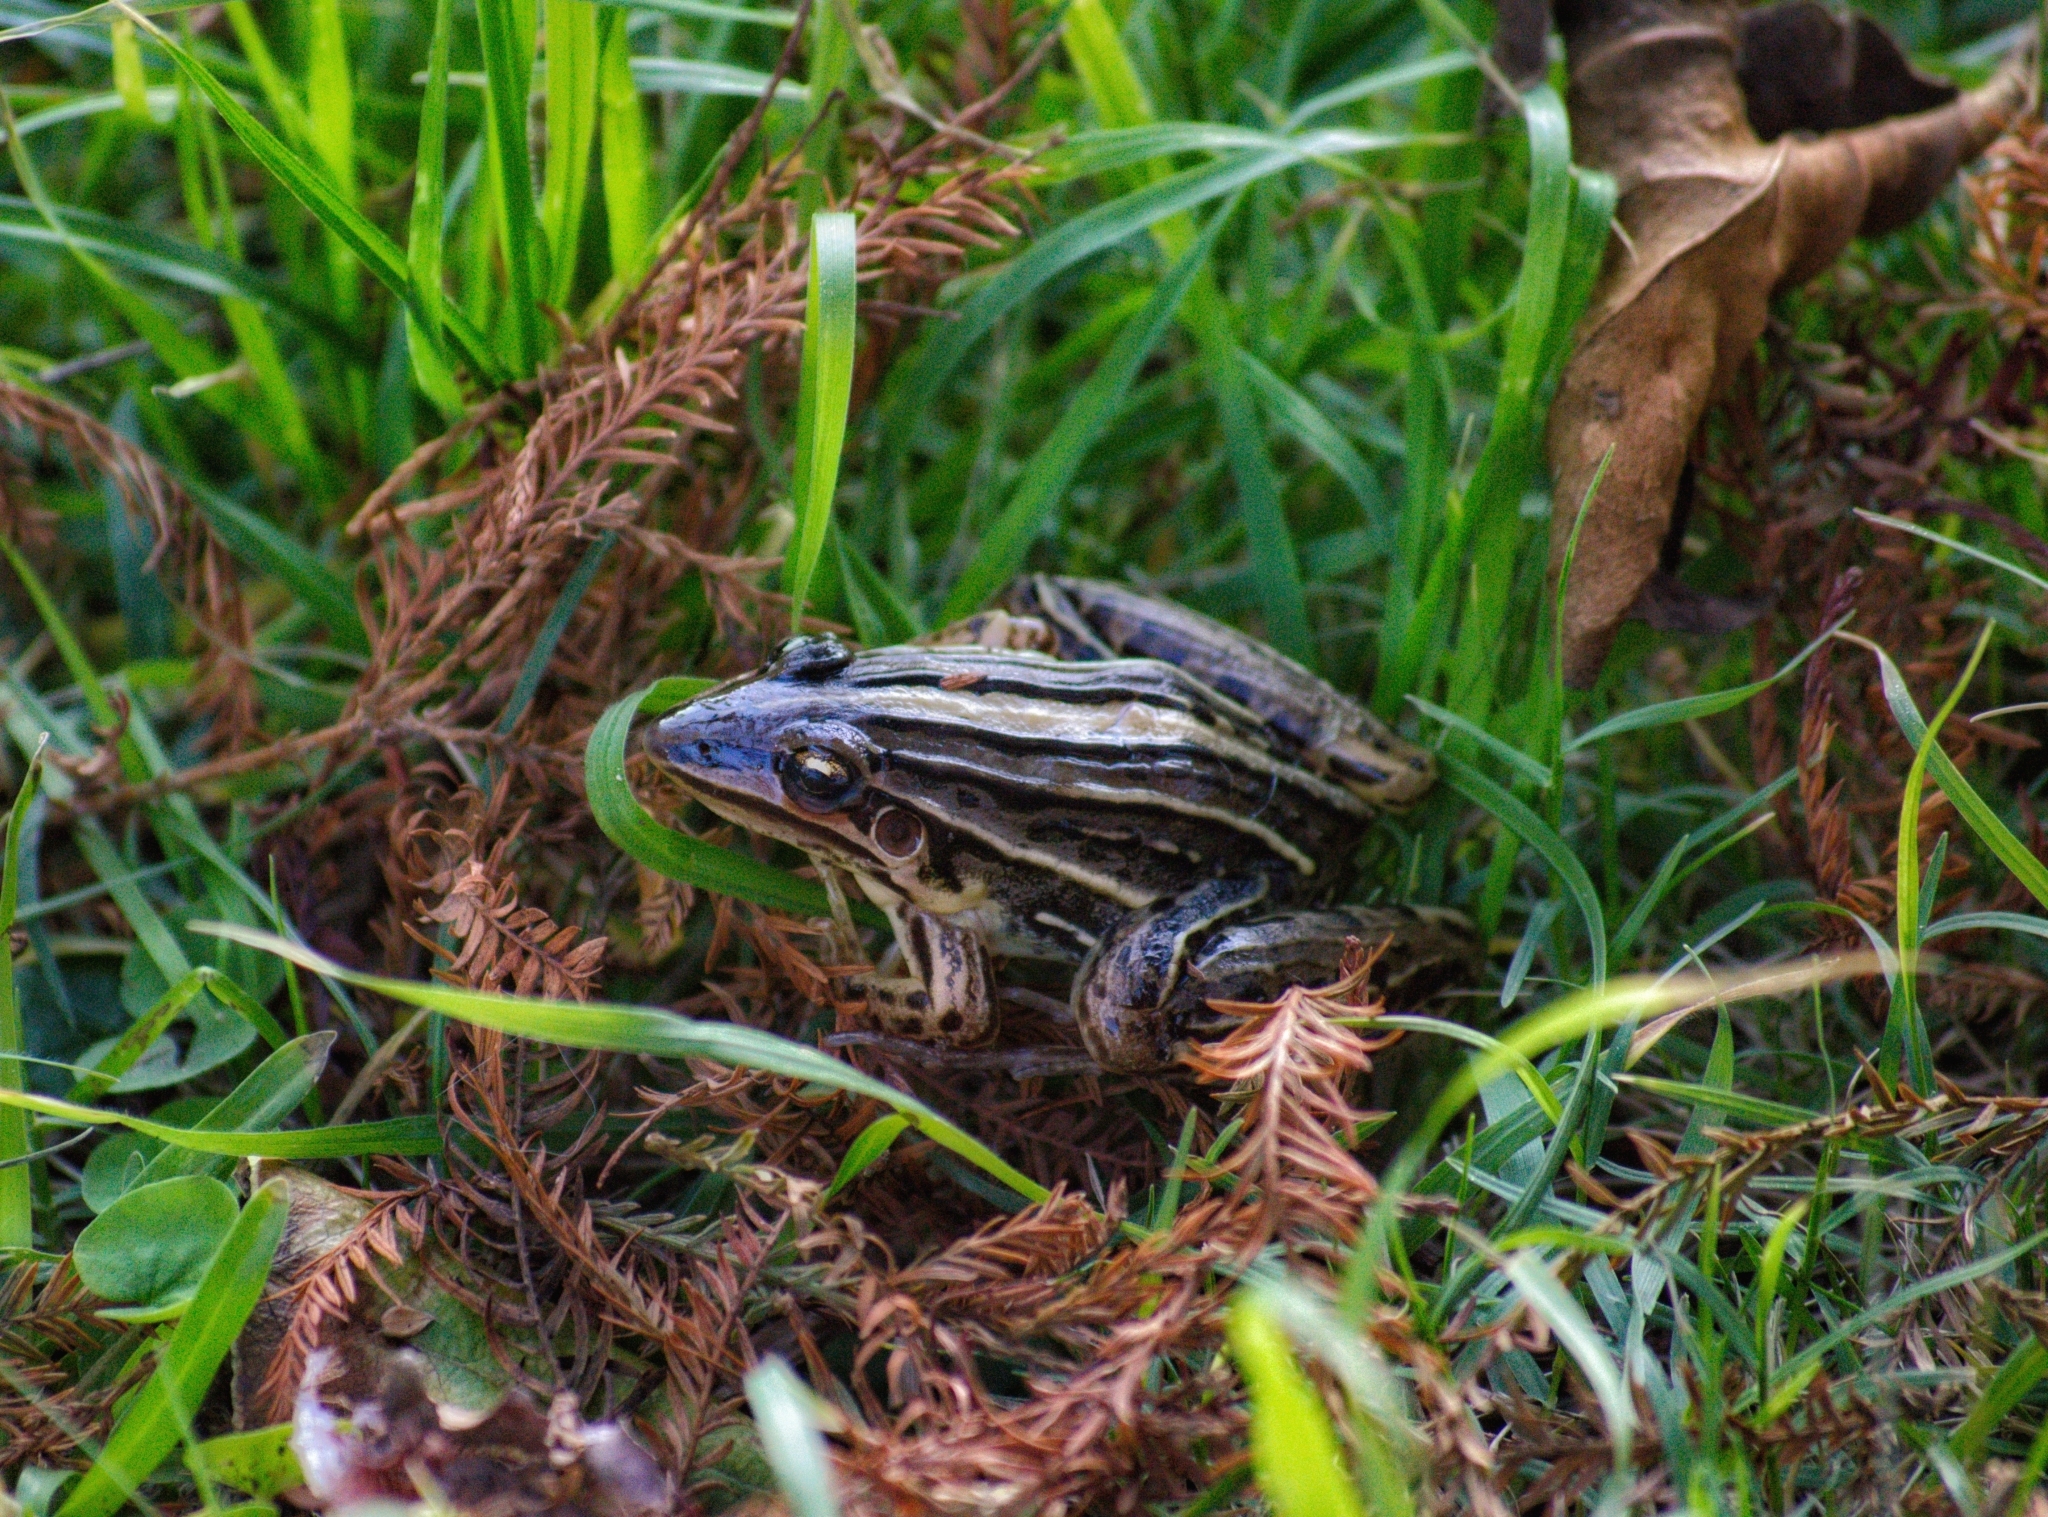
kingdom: Animalia
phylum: Chordata
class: Amphibia
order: Anura
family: Leptodactylidae
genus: Leptodactylus
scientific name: Leptodactylus gracilis
